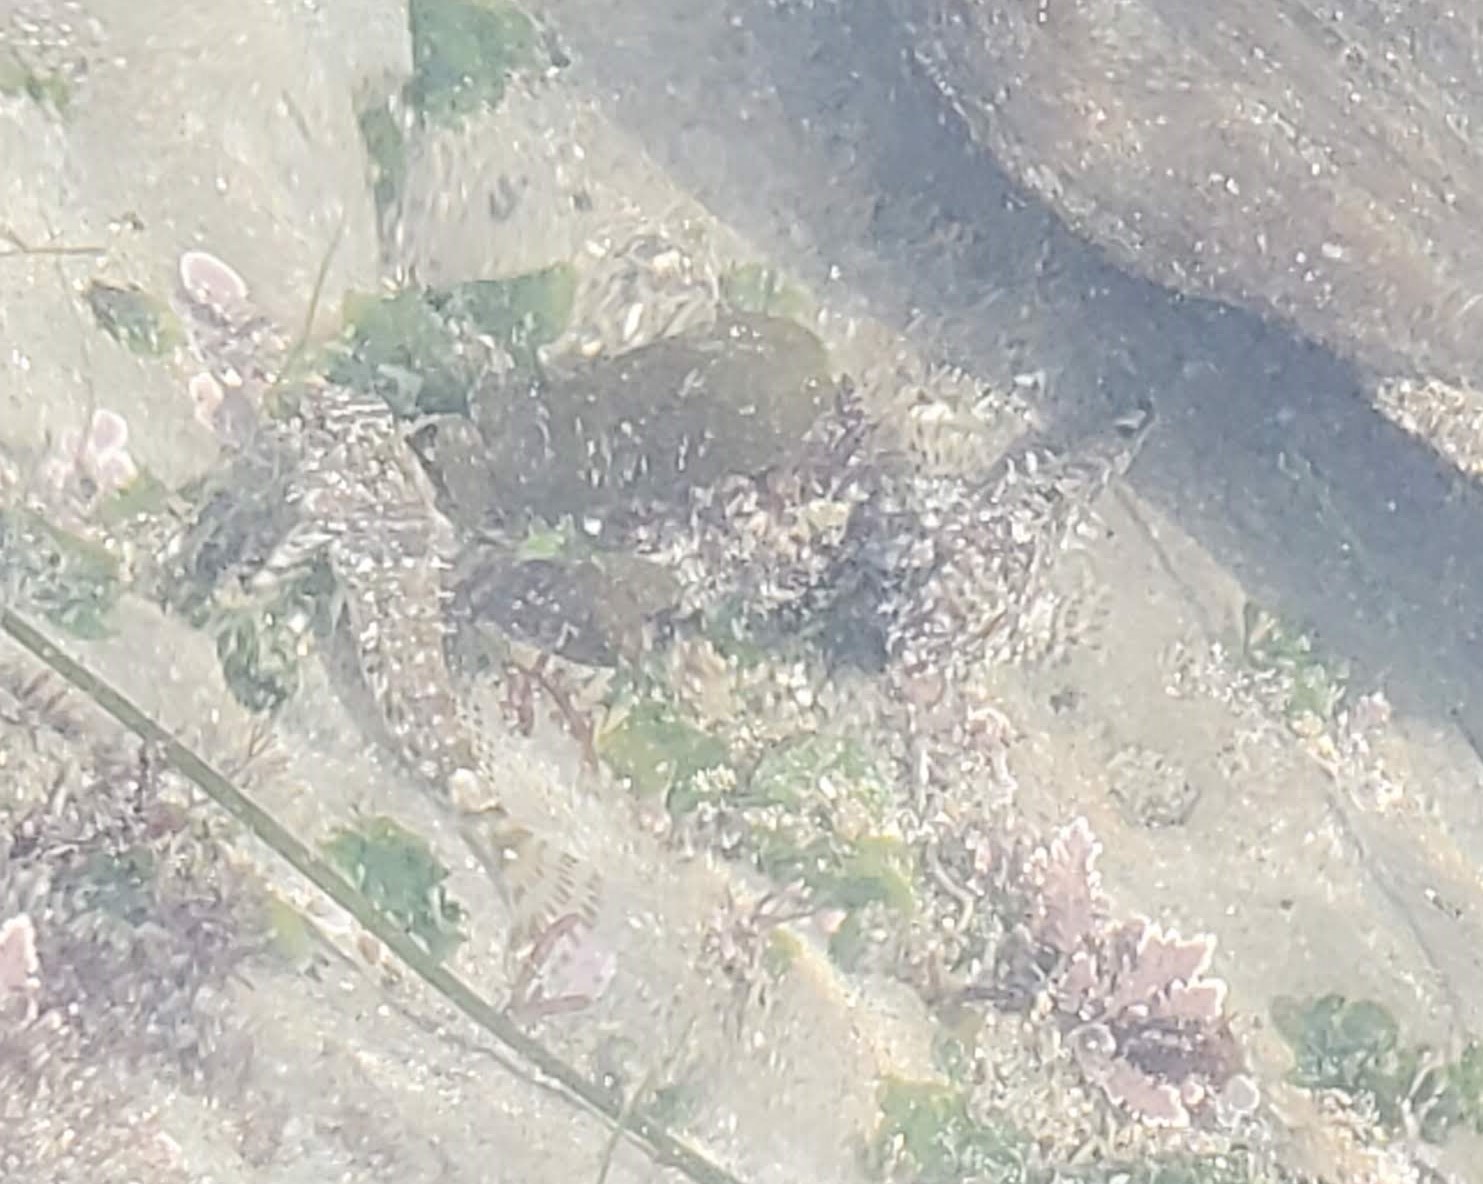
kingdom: Animalia
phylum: Chordata
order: Scorpaeniformes
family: Cottidae
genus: Clinocottus
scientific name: Clinocottus analis
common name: Woolly sculpin
